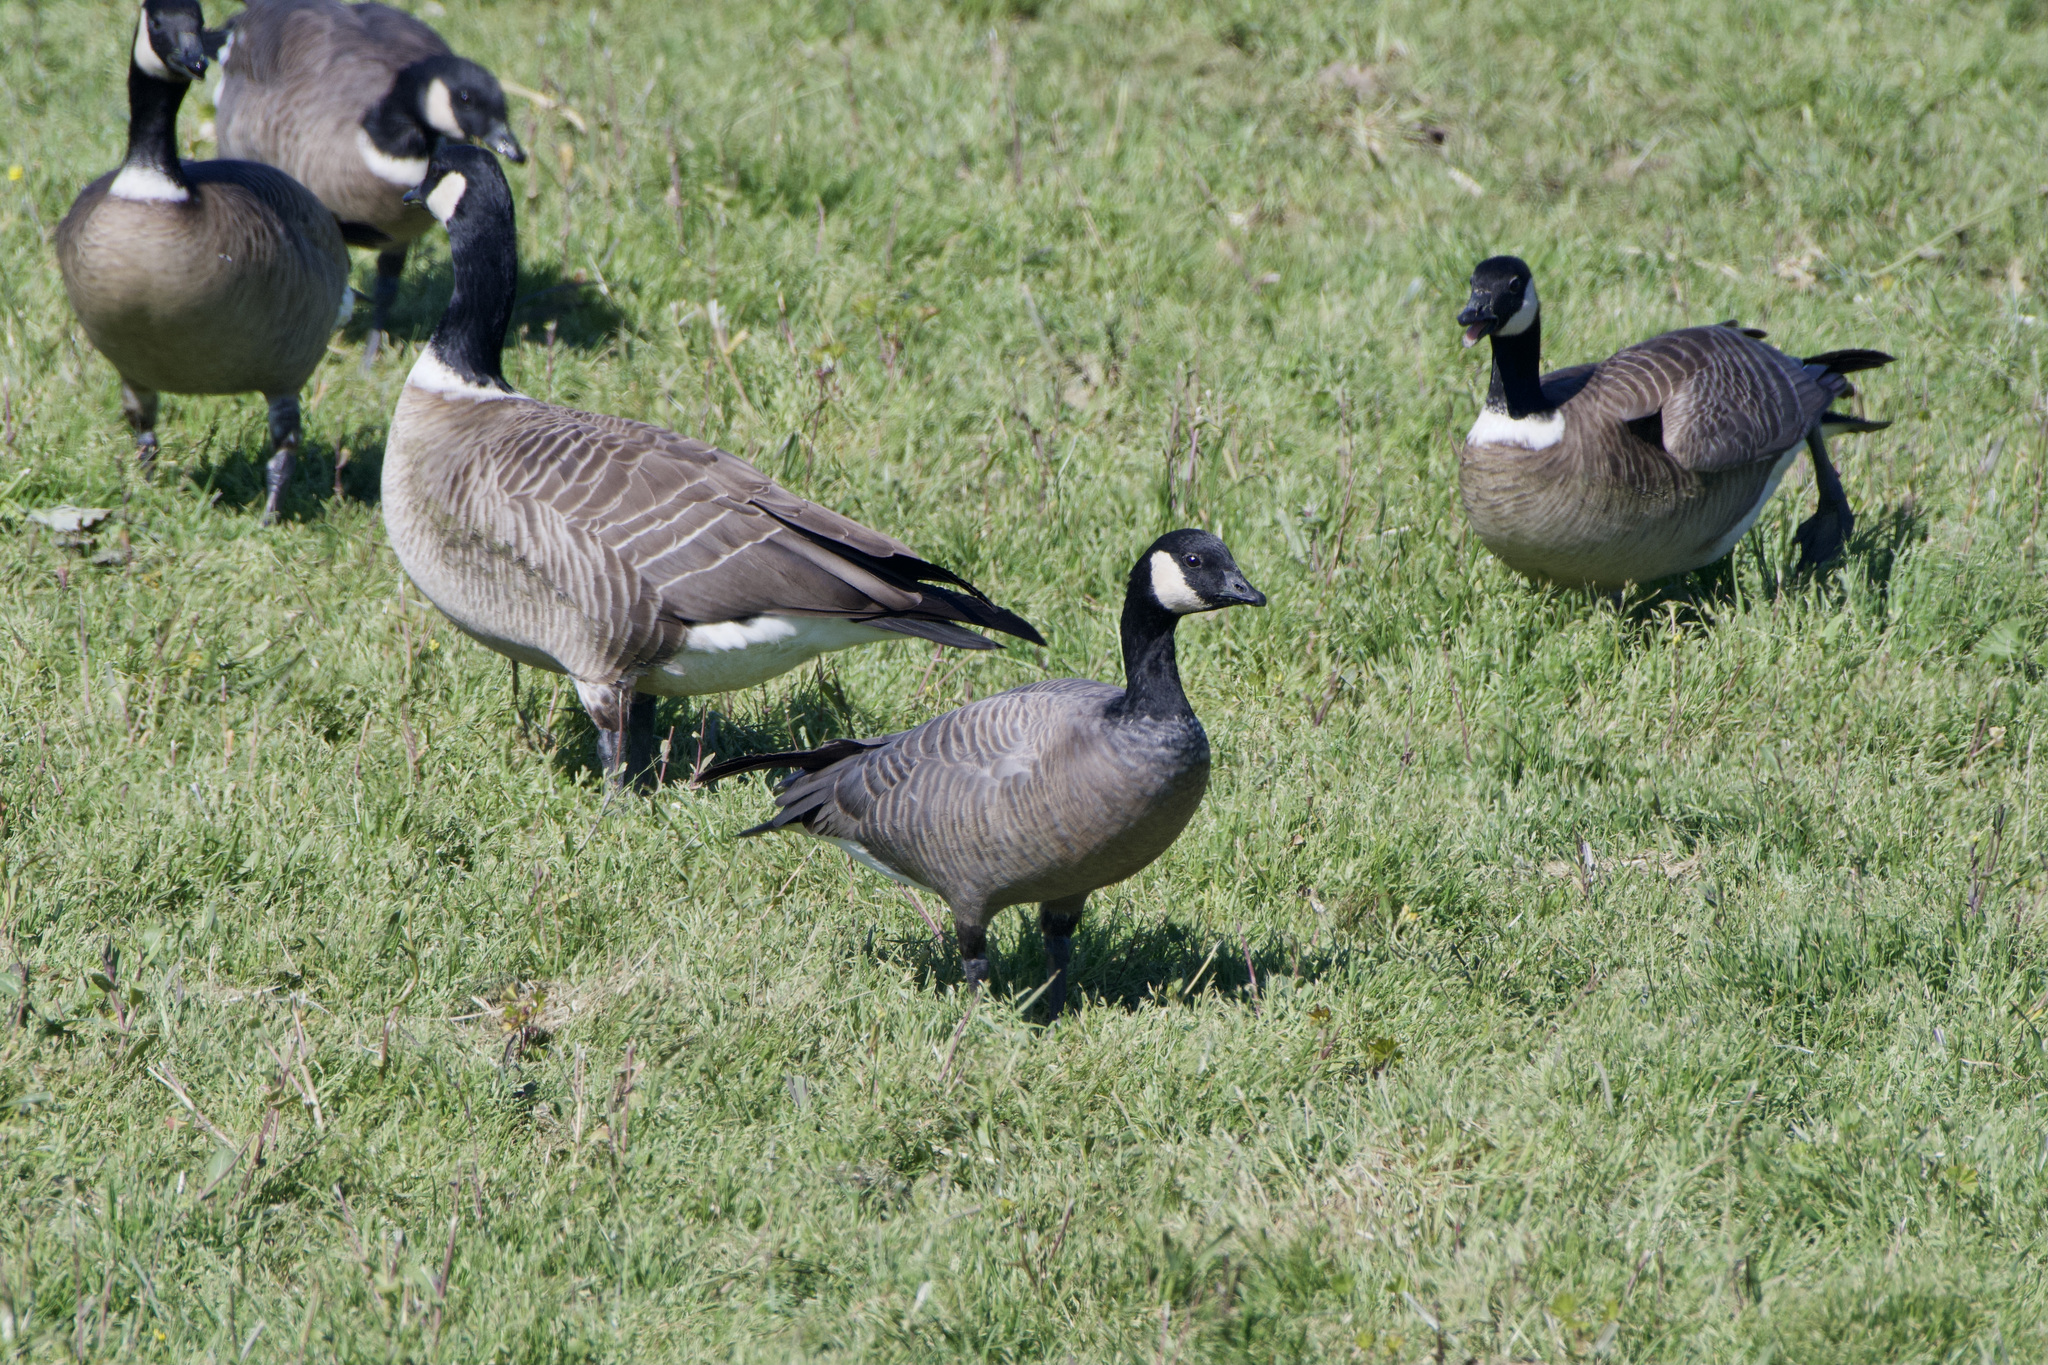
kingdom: Animalia
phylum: Chordata
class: Aves
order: Anseriformes
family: Anatidae
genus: Branta
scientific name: Branta hutchinsii
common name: Cackling goose
